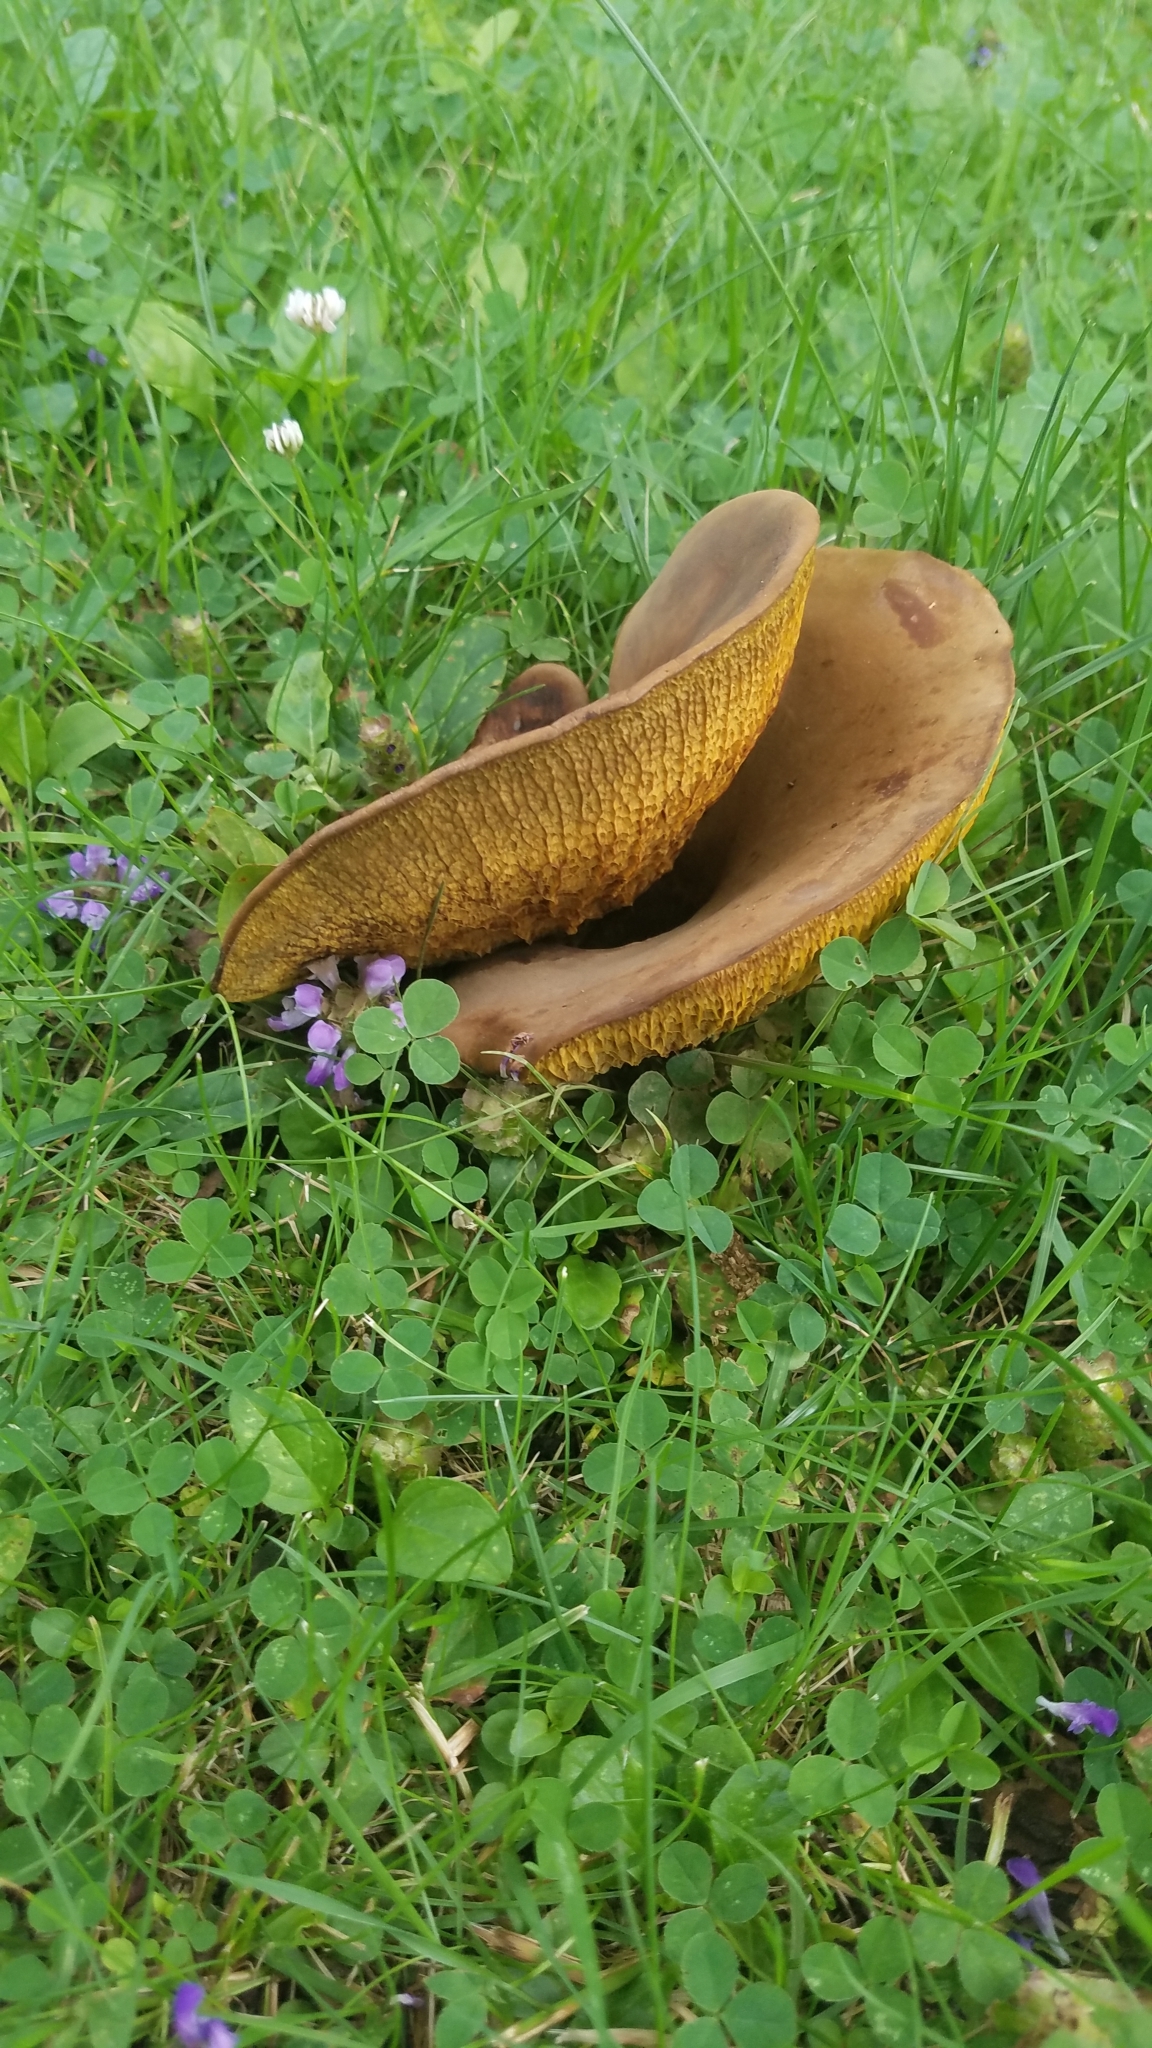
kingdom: Fungi
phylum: Basidiomycota
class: Agaricomycetes
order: Boletales
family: Boletinellaceae
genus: Boletinellus
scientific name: Boletinellus merulioides
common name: Ash tree bolete
